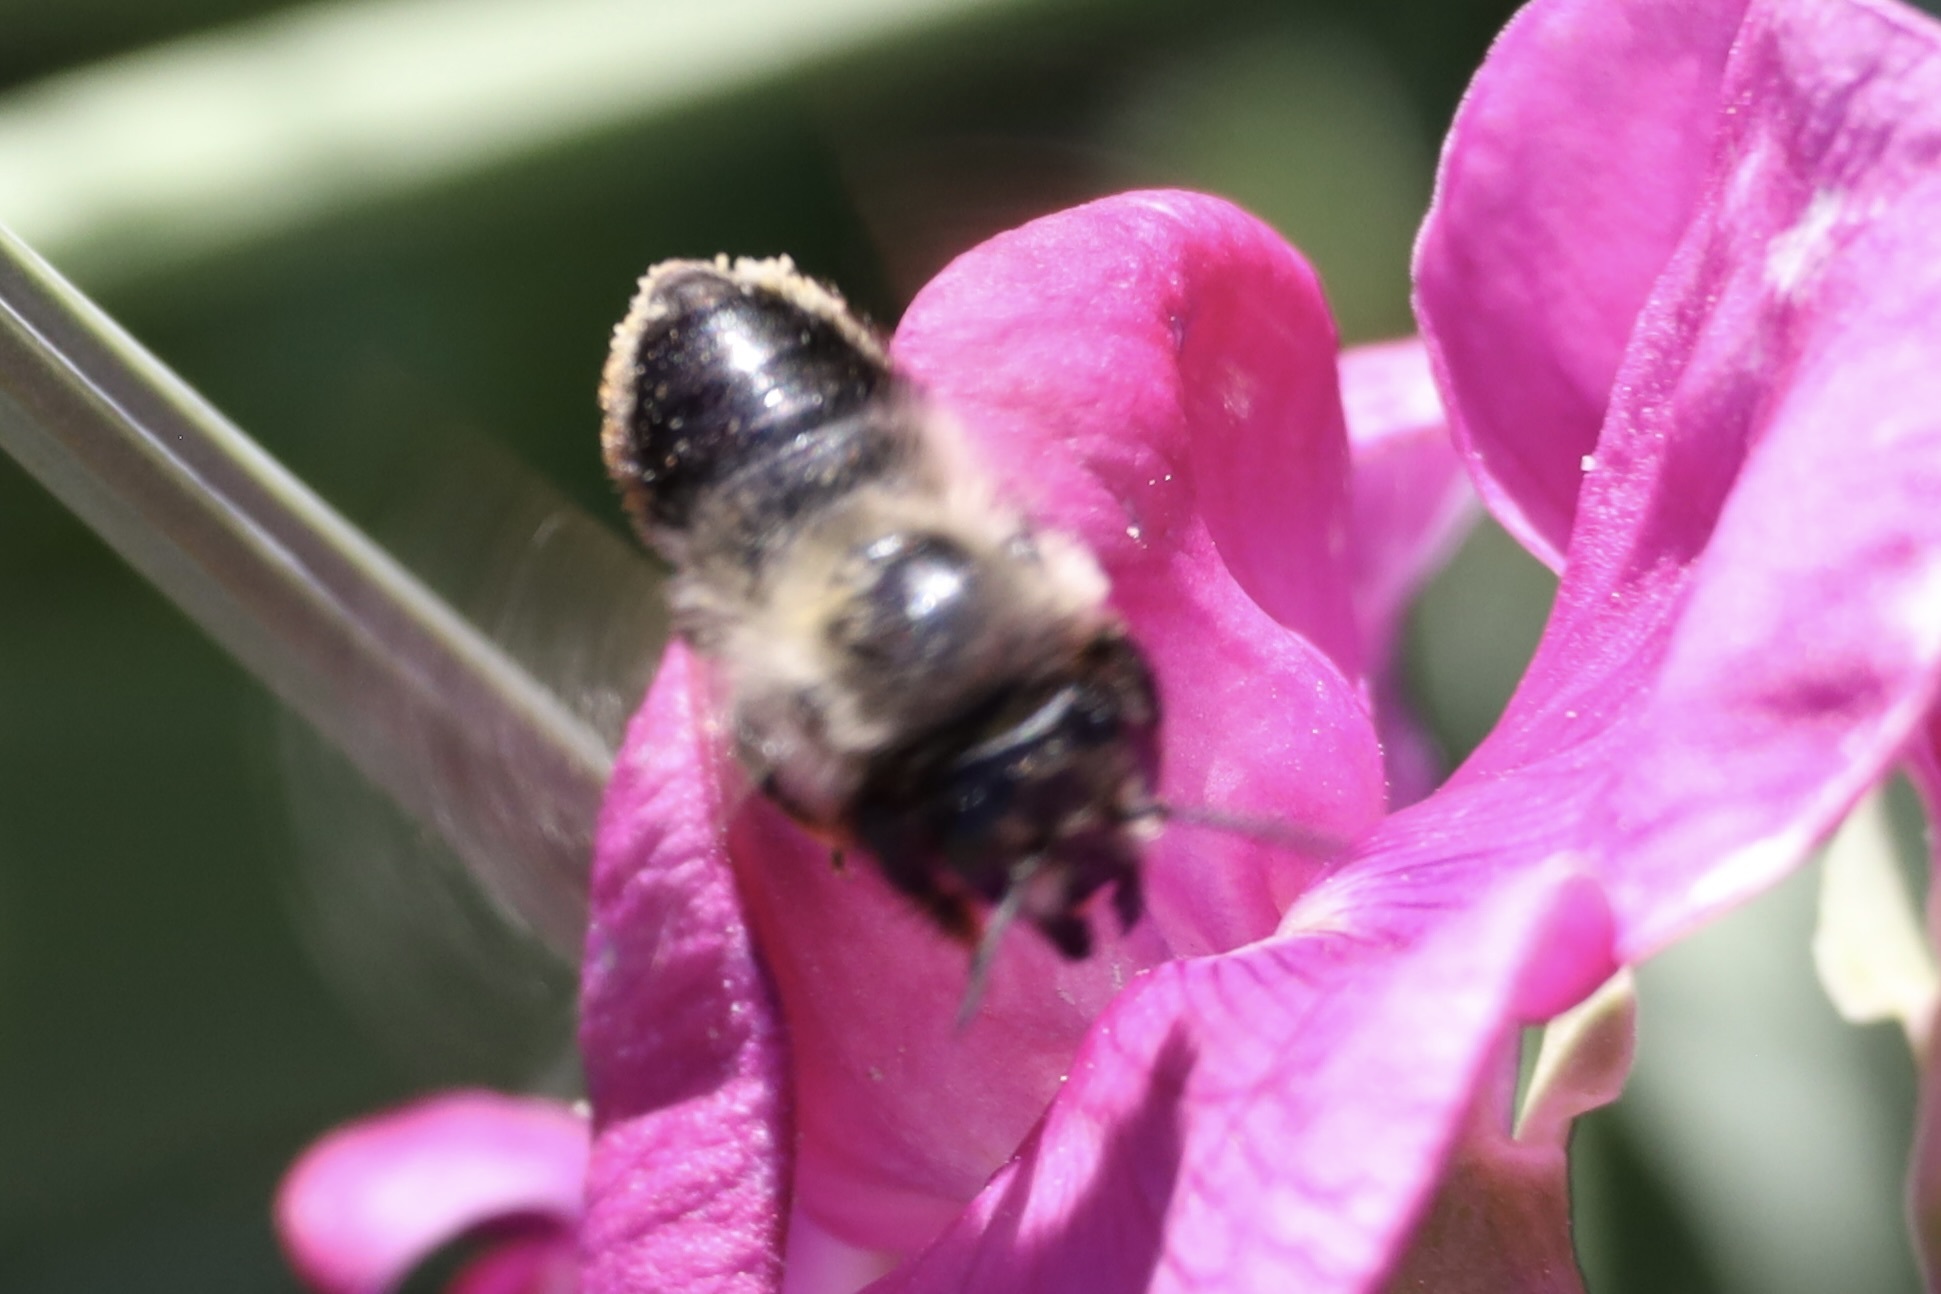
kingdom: Animalia
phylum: Arthropoda
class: Insecta
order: Hymenoptera
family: Megachilidae
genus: Megachile
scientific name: Megachile melanophaea
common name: Black-and-gray leafcutter bee
